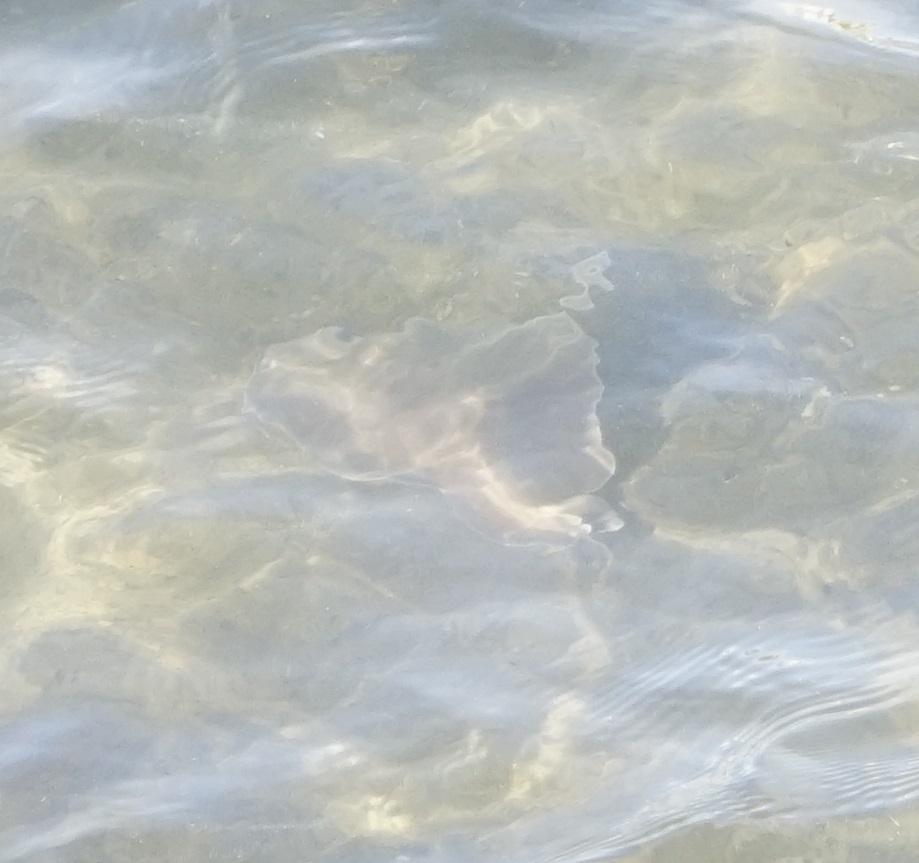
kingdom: Animalia
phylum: Chordata
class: Elasmobranchii
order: Torpediniformes
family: Hypnidae
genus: Hypnos
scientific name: Hypnos monopterygius
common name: Australian numbfish
